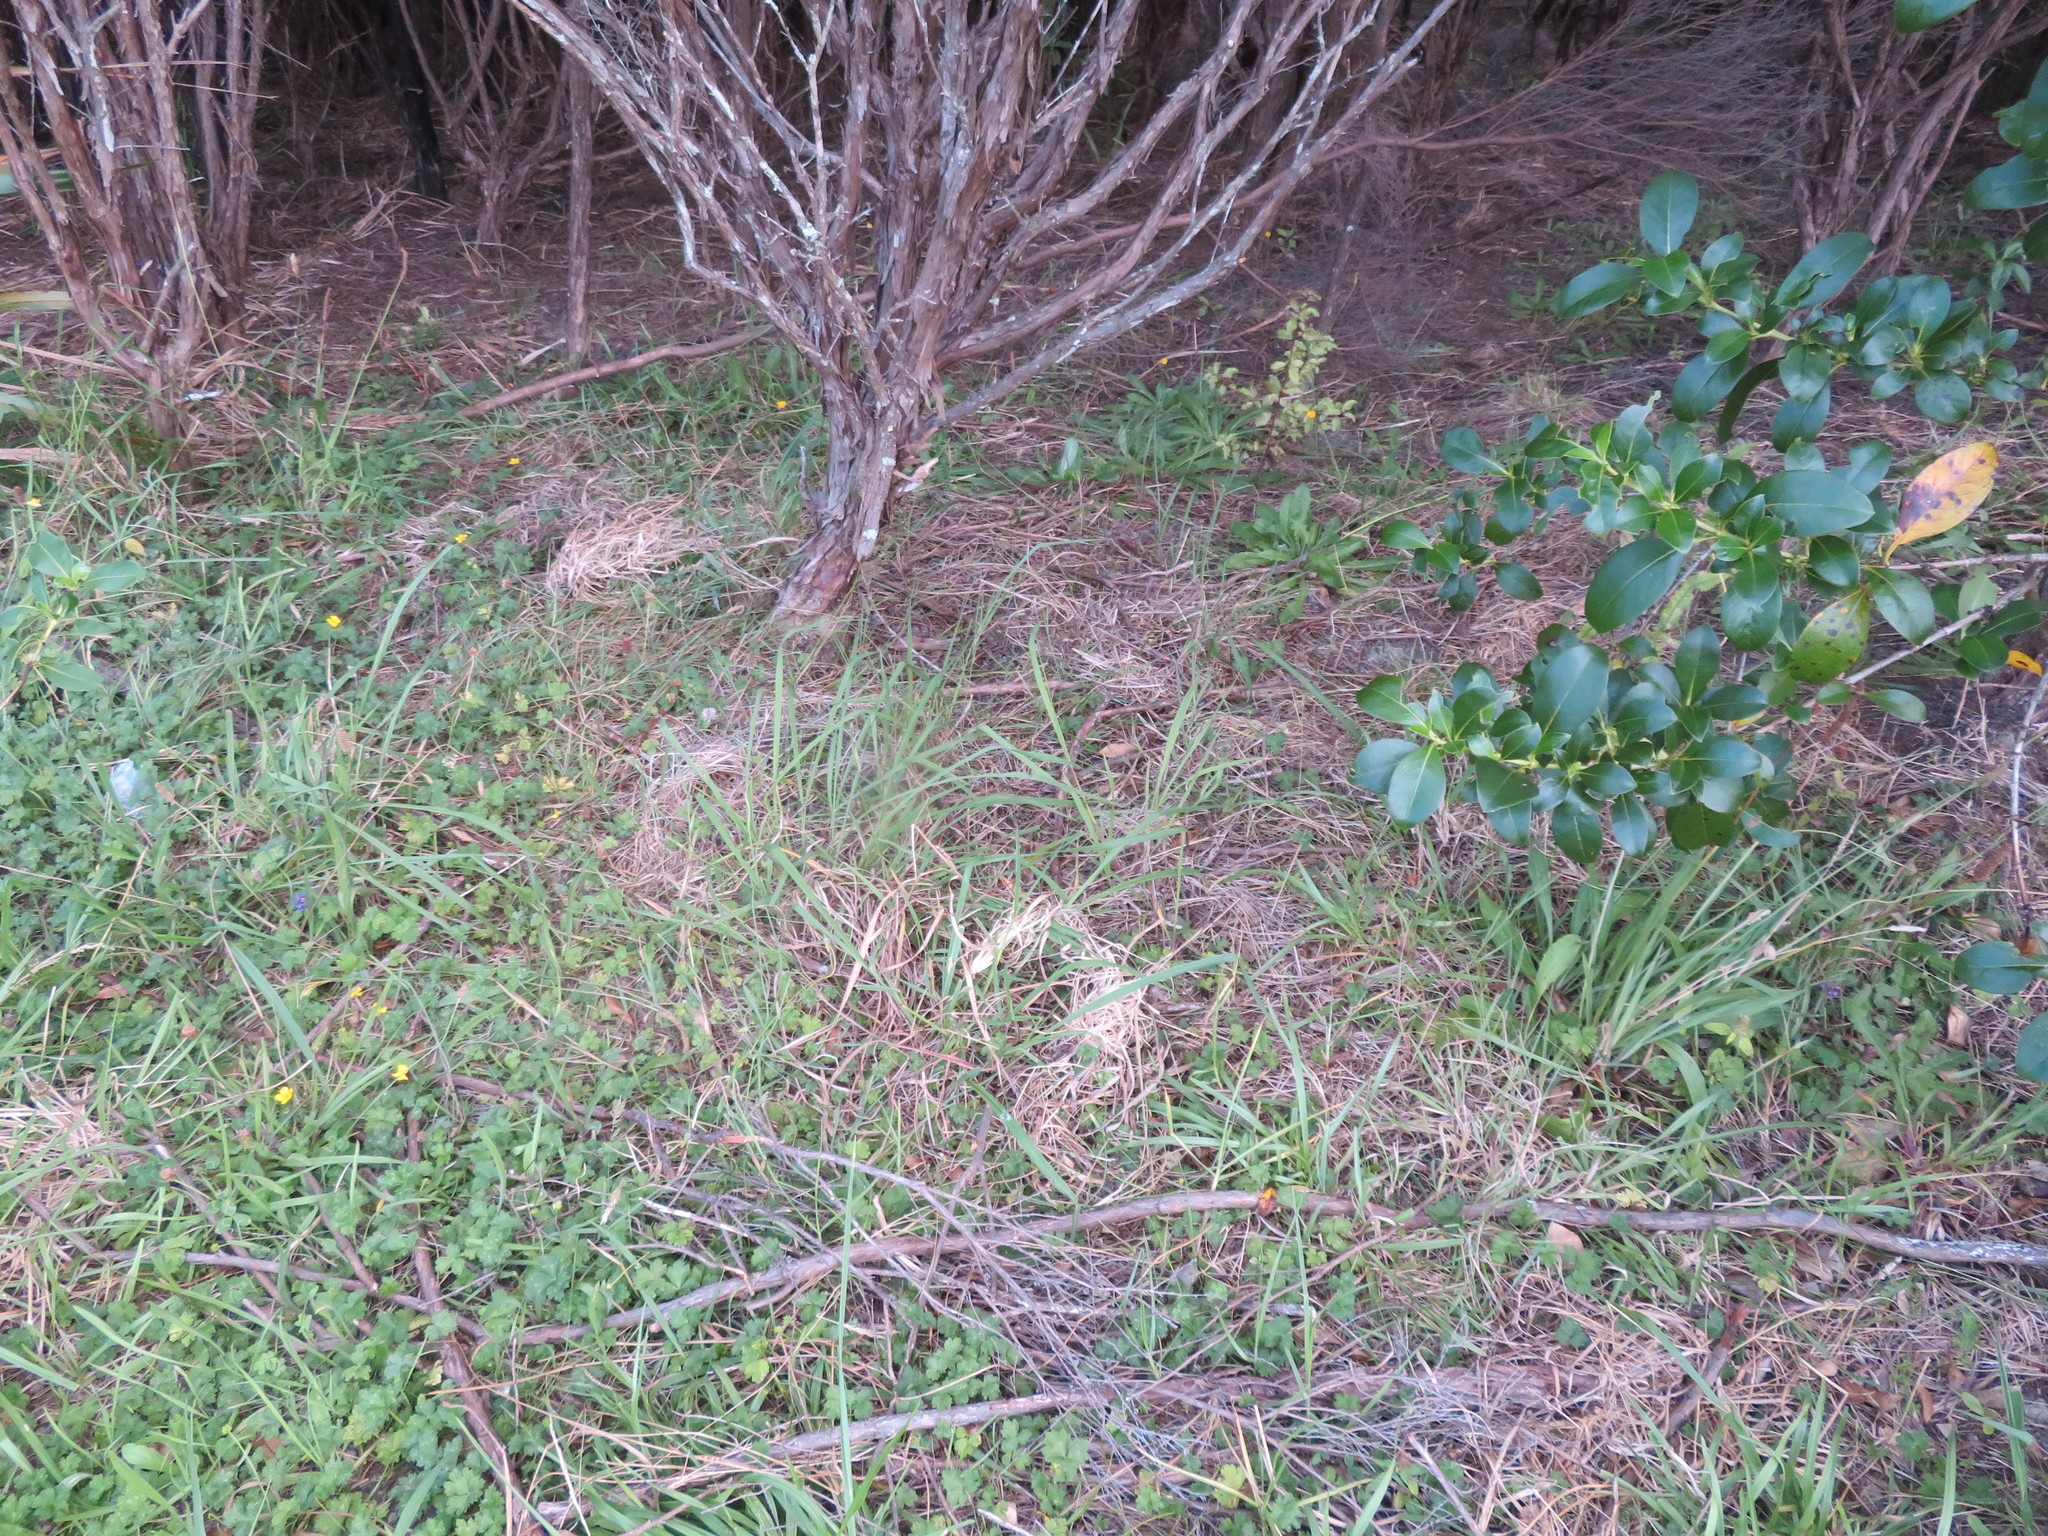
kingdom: Plantae
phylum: Tracheophyta
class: Magnoliopsida
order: Ericales
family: Primulaceae
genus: Myrsine
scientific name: Myrsine australis
